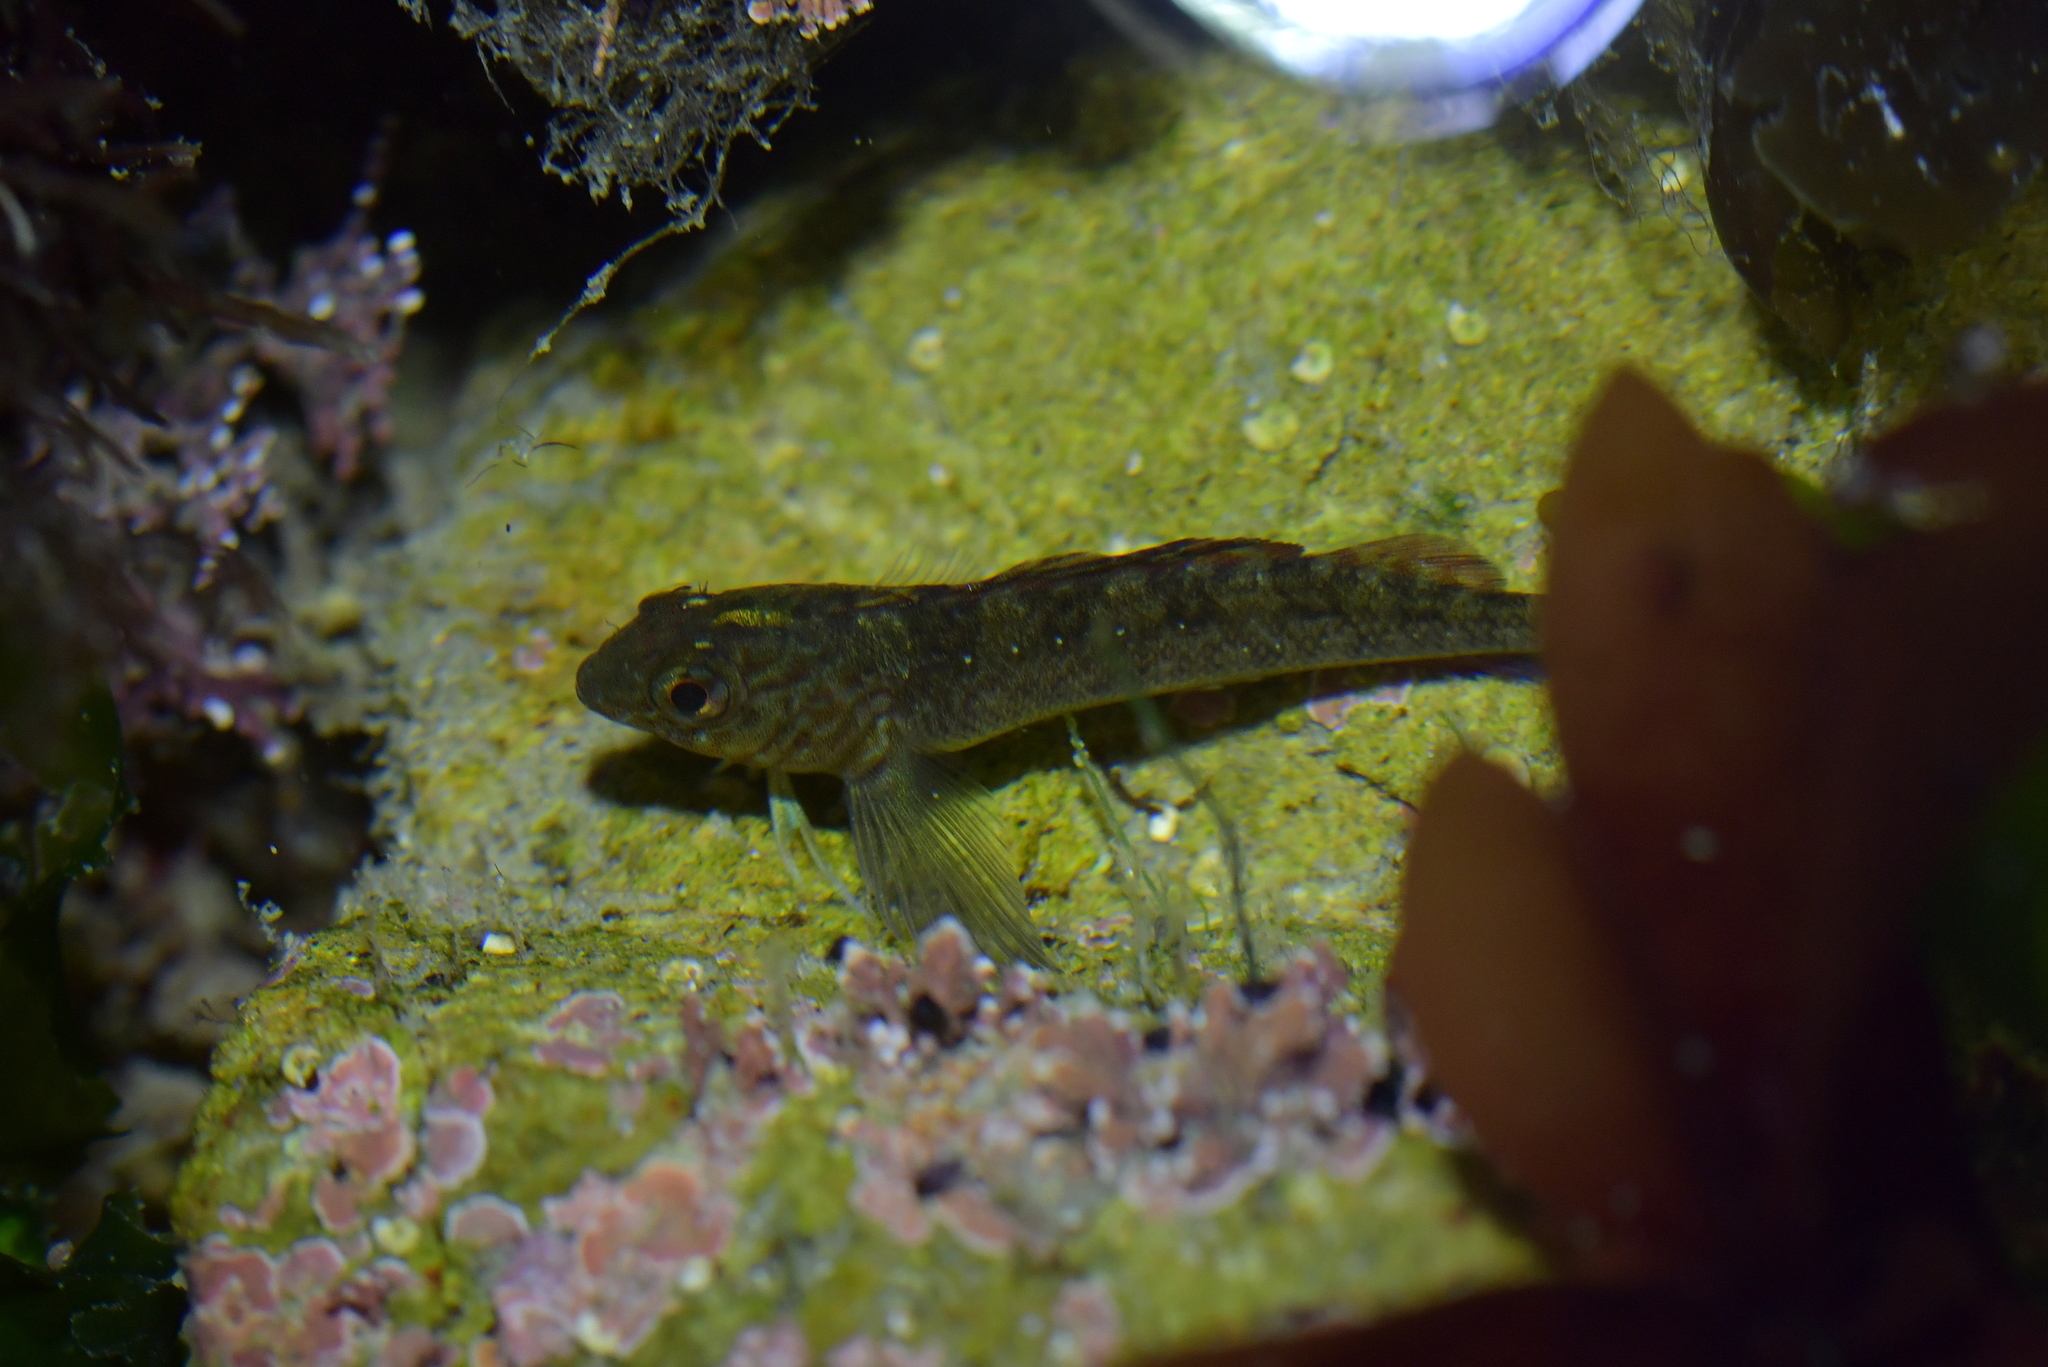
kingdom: Animalia
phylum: Chordata
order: Perciformes
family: Tripterygiidae
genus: Forsterygion
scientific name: Forsterygion lapillum
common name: Common triplefin
